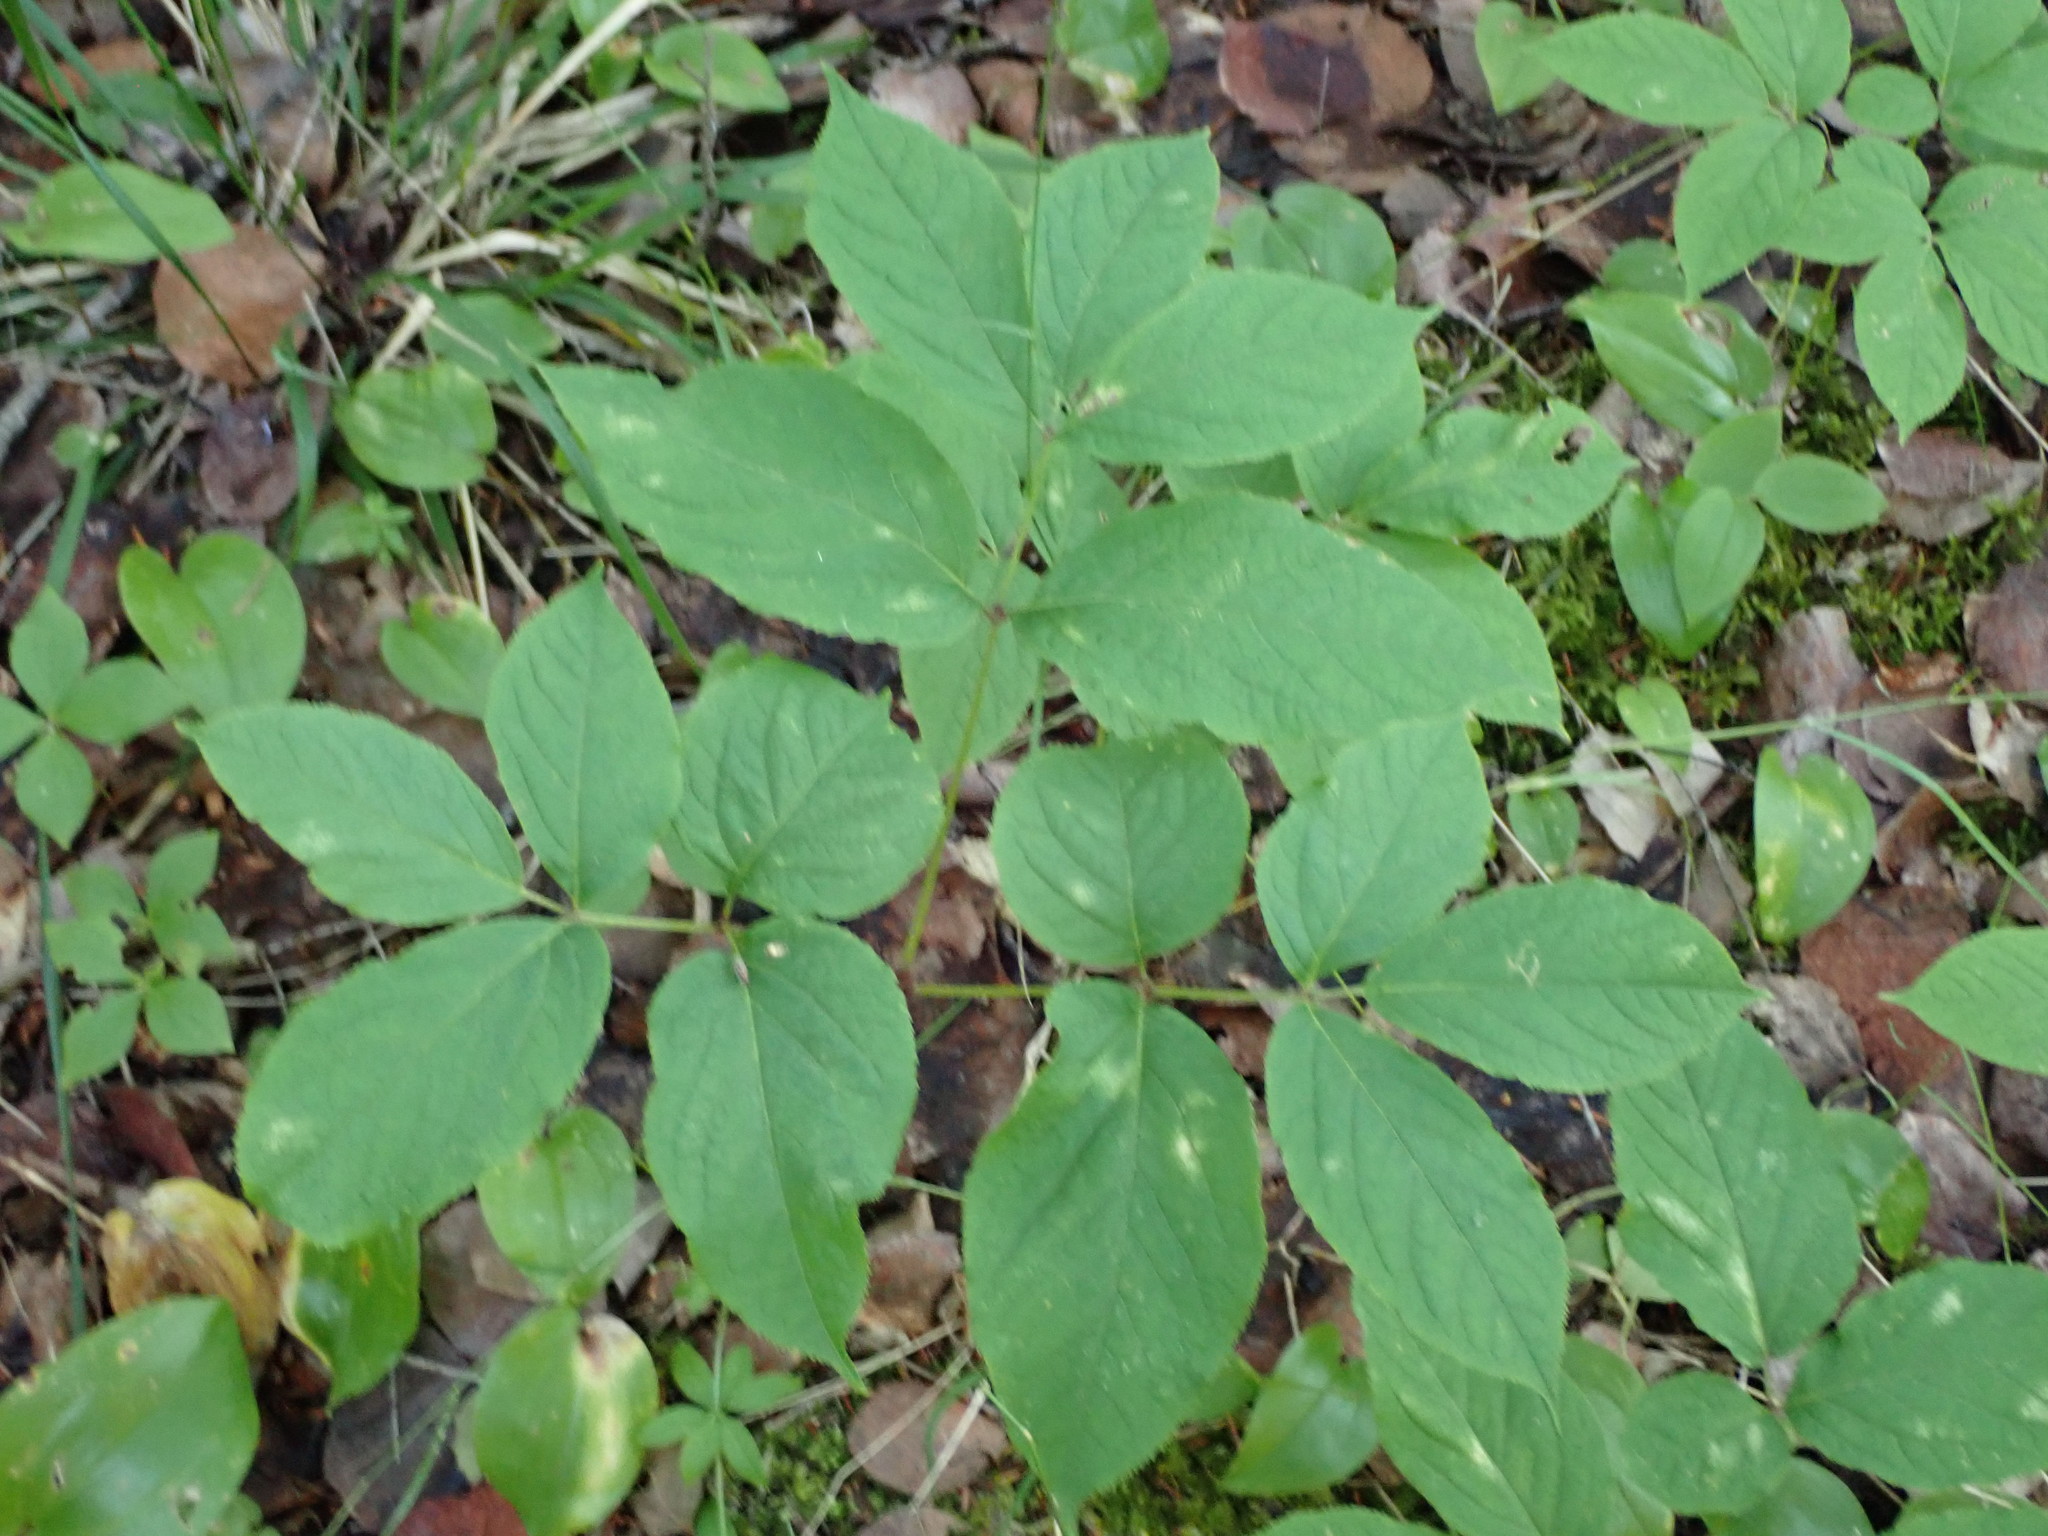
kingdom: Plantae
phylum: Tracheophyta
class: Magnoliopsida
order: Apiales
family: Araliaceae
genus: Aralia
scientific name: Aralia nudicaulis
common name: Wild sarsaparilla
